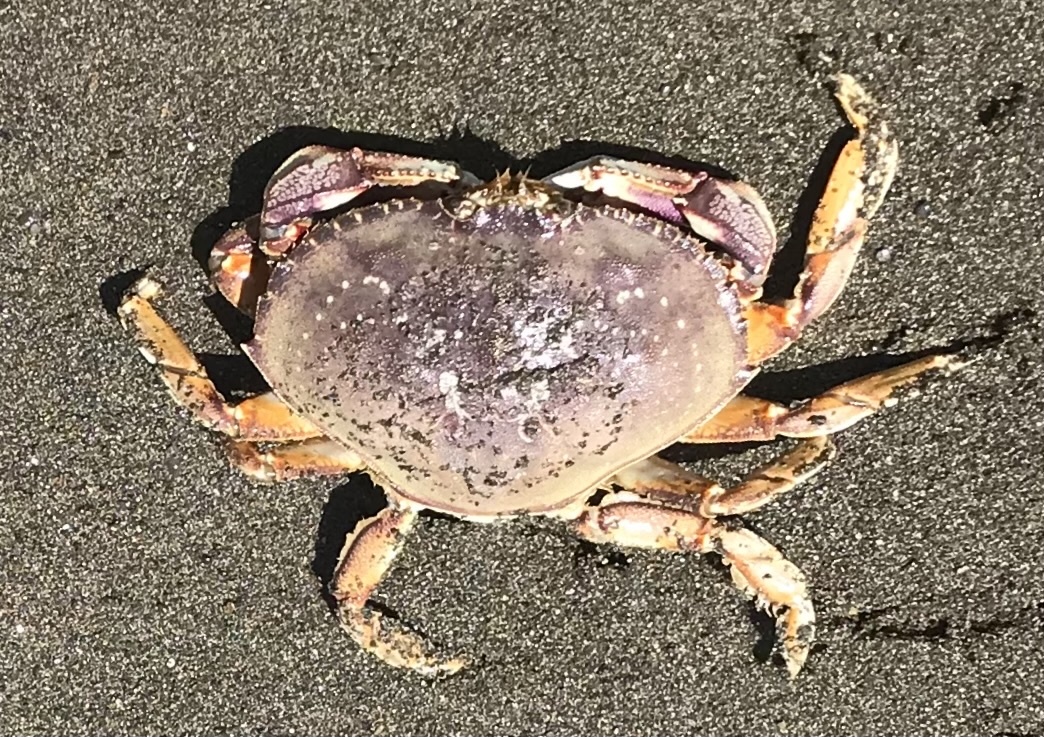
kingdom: Animalia
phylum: Arthropoda
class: Malacostraca
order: Decapoda
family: Cancridae
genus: Metacarcinus
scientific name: Metacarcinus magister
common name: Californian crab
